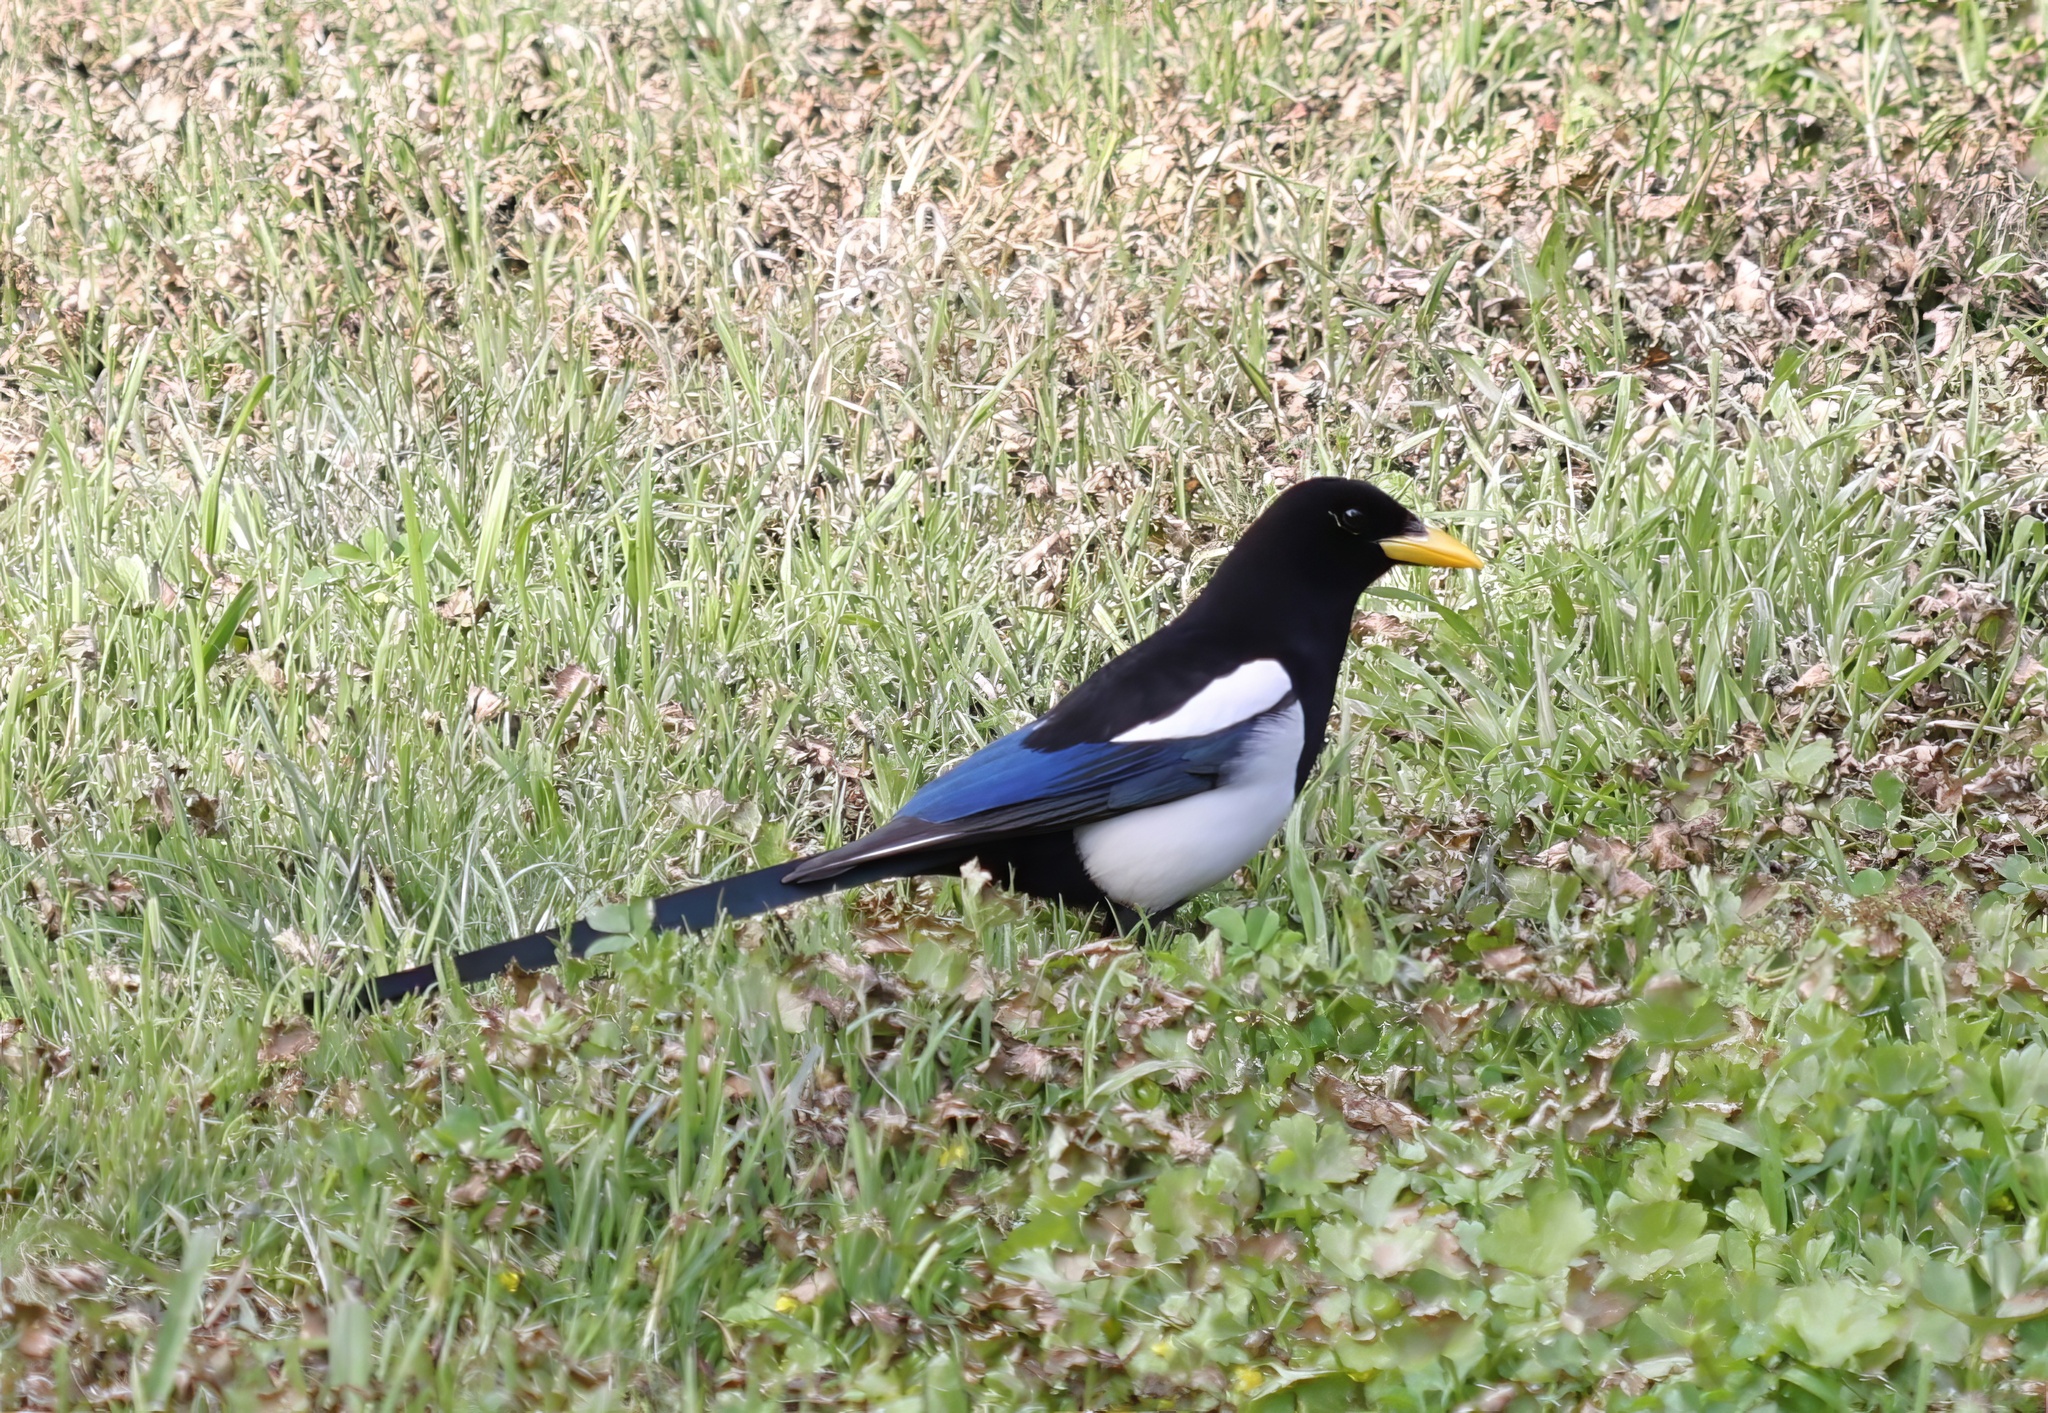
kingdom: Animalia
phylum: Chordata
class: Aves
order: Passeriformes
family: Corvidae
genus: Pica
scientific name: Pica nuttalli
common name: Yellow-billed magpie
